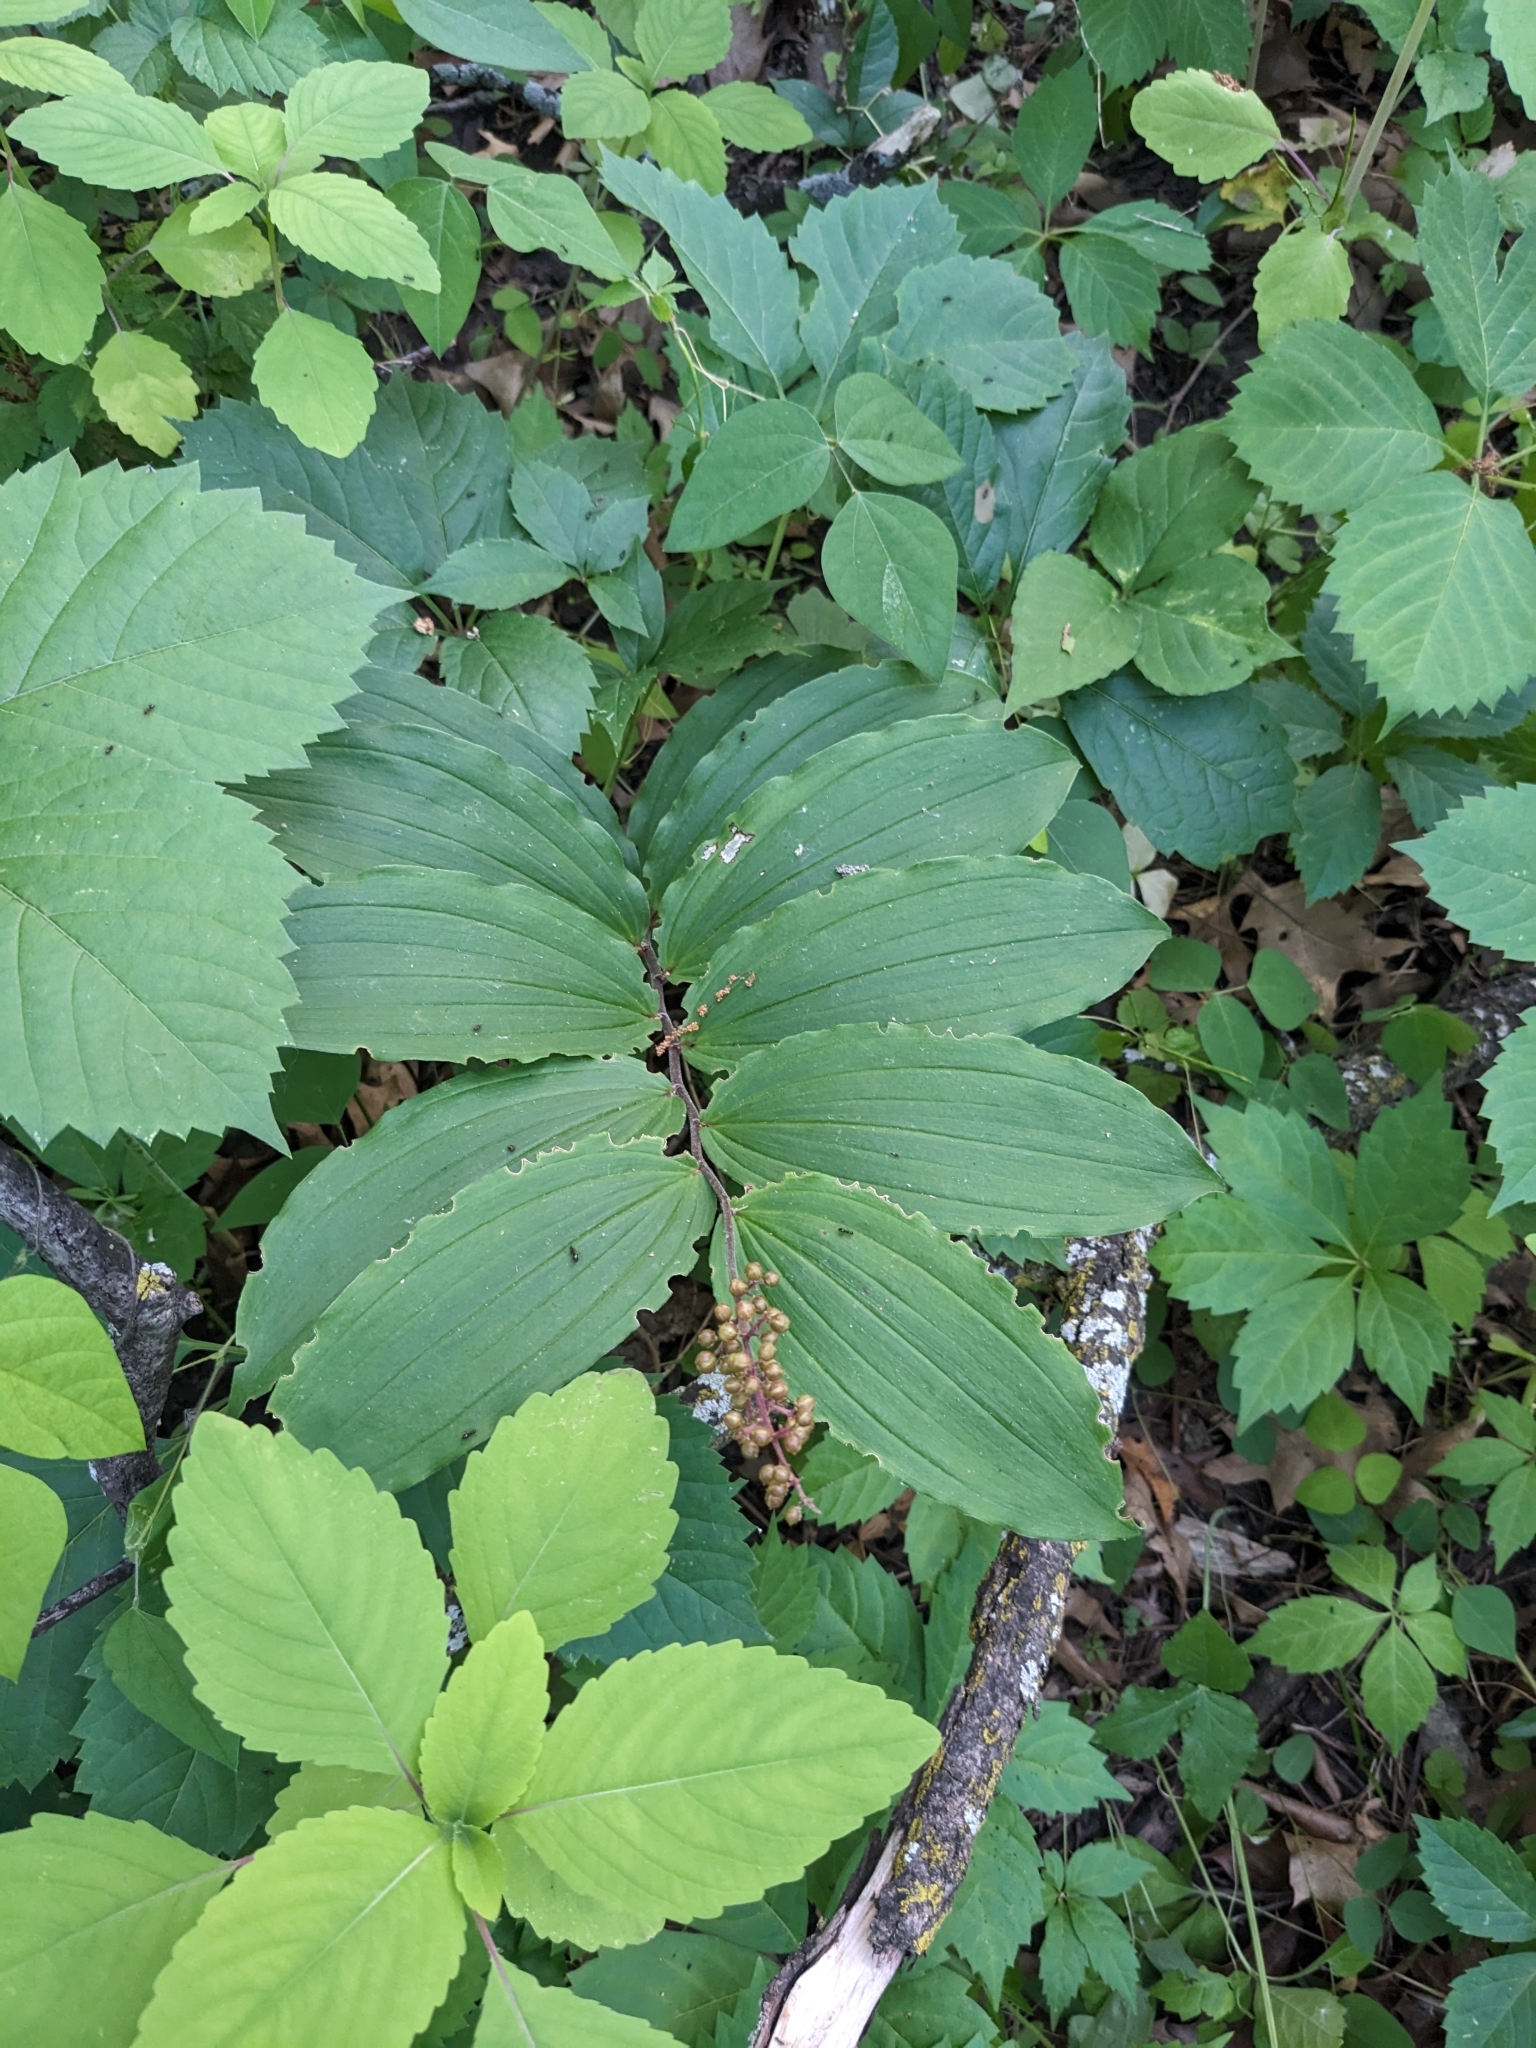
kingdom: Plantae
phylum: Tracheophyta
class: Liliopsida
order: Asparagales
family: Asparagaceae
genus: Maianthemum
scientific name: Maianthemum racemosum
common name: False spikenard
